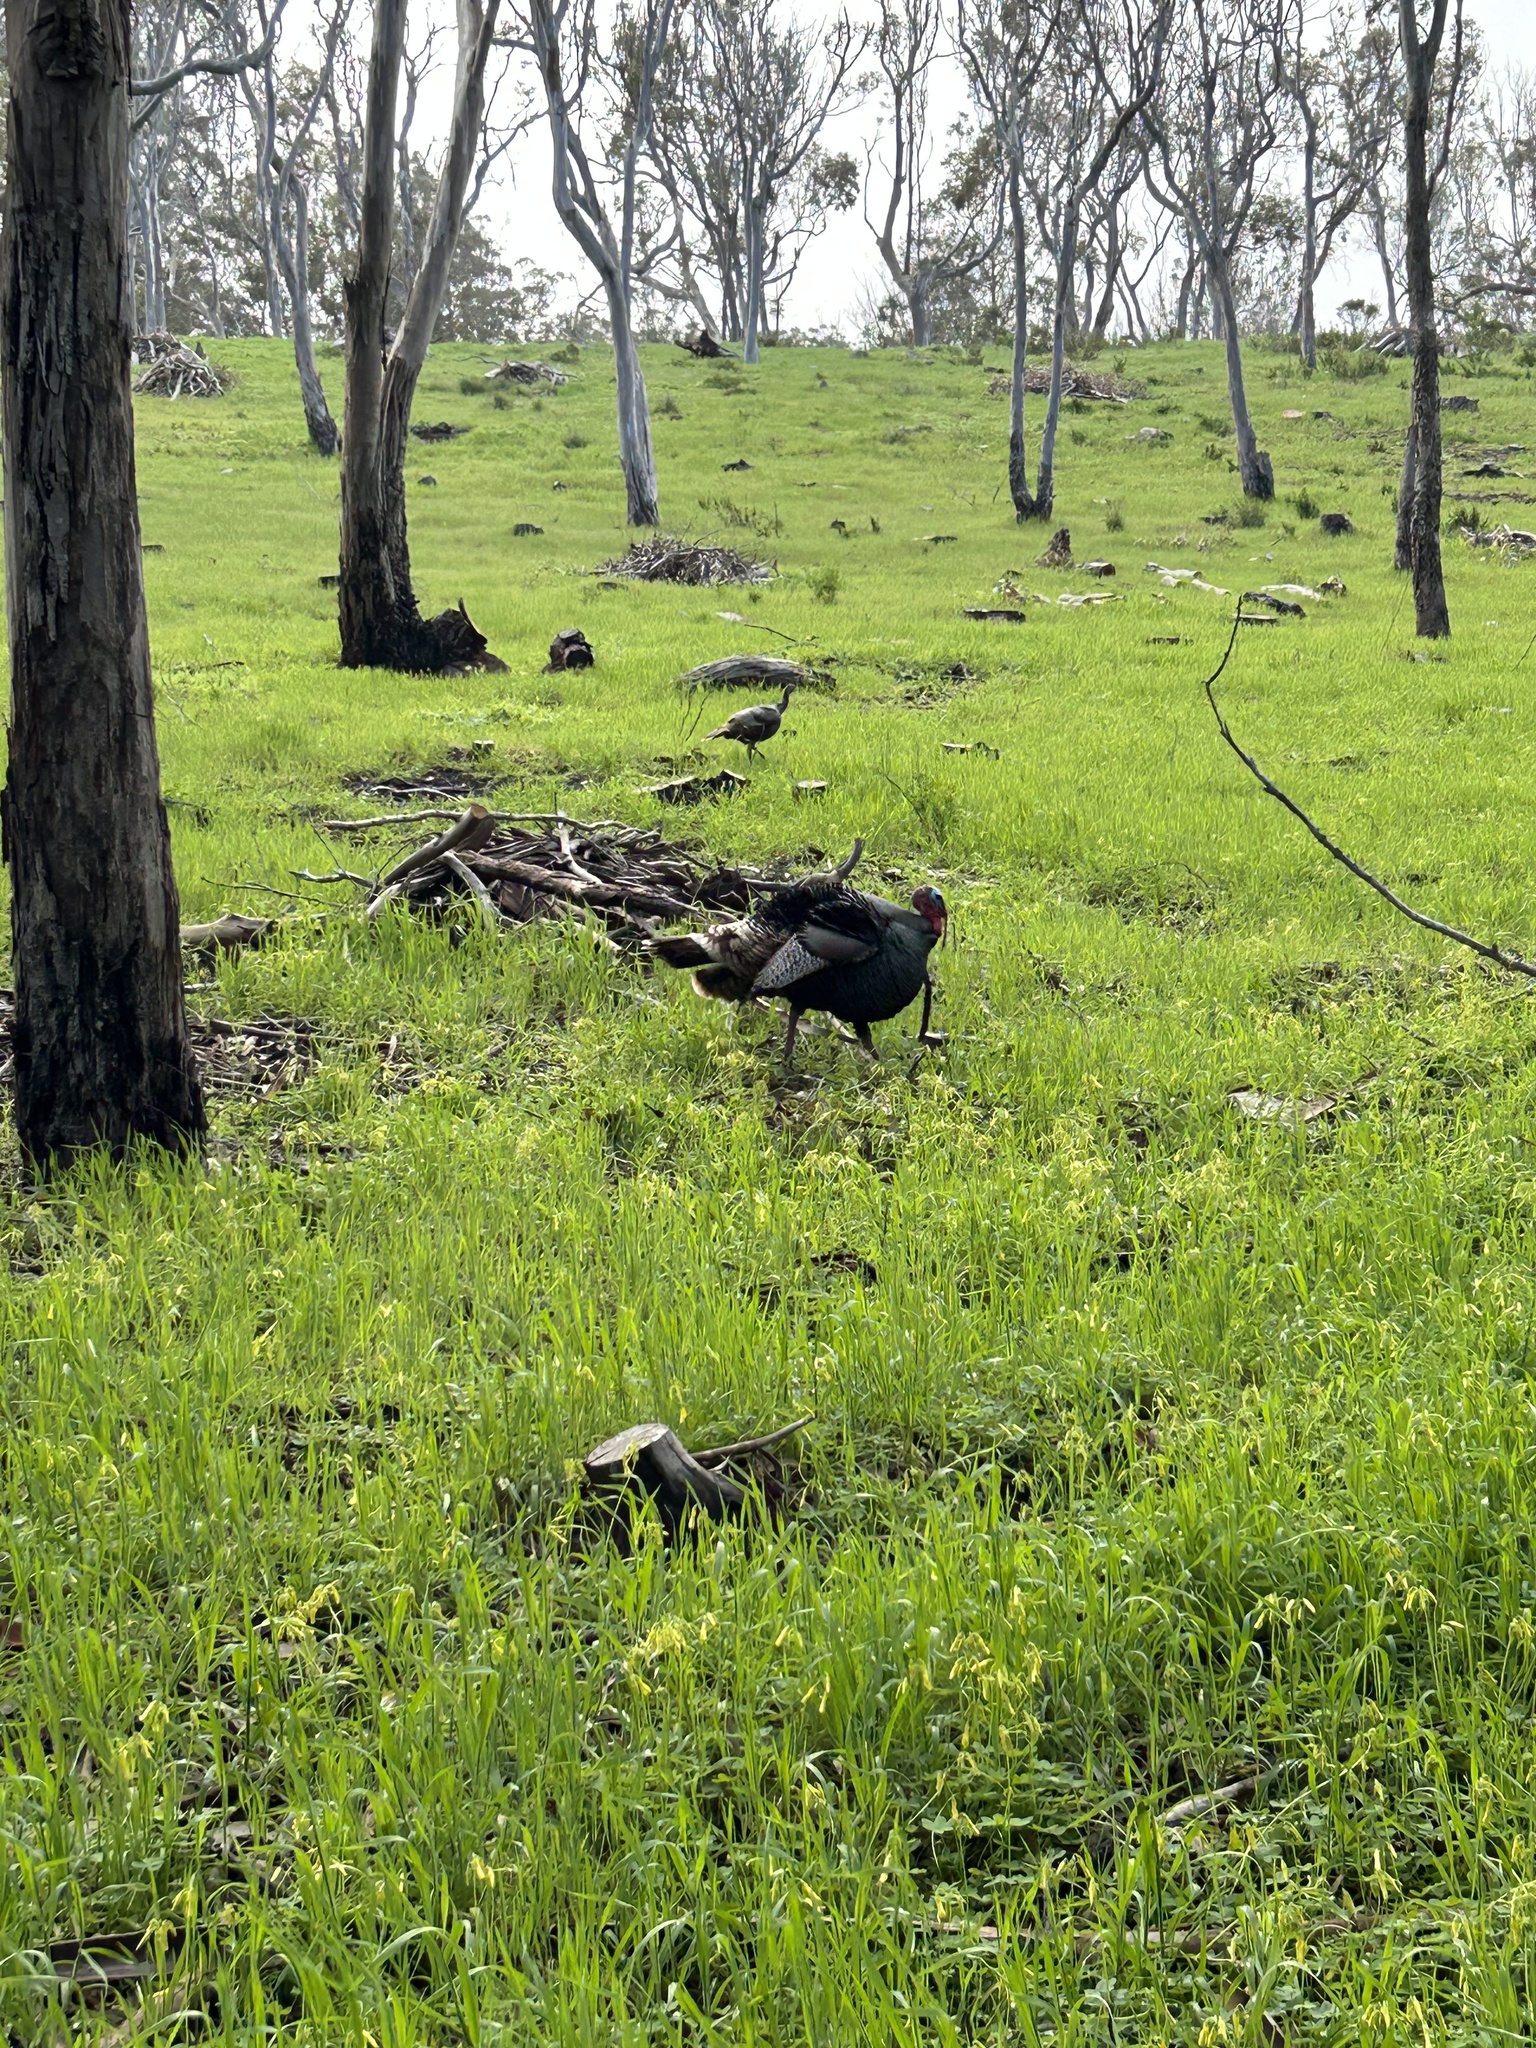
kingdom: Animalia
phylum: Chordata
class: Aves
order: Galliformes
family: Phasianidae
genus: Meleagris
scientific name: Meleagris gallopavo
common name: Wild turkey
